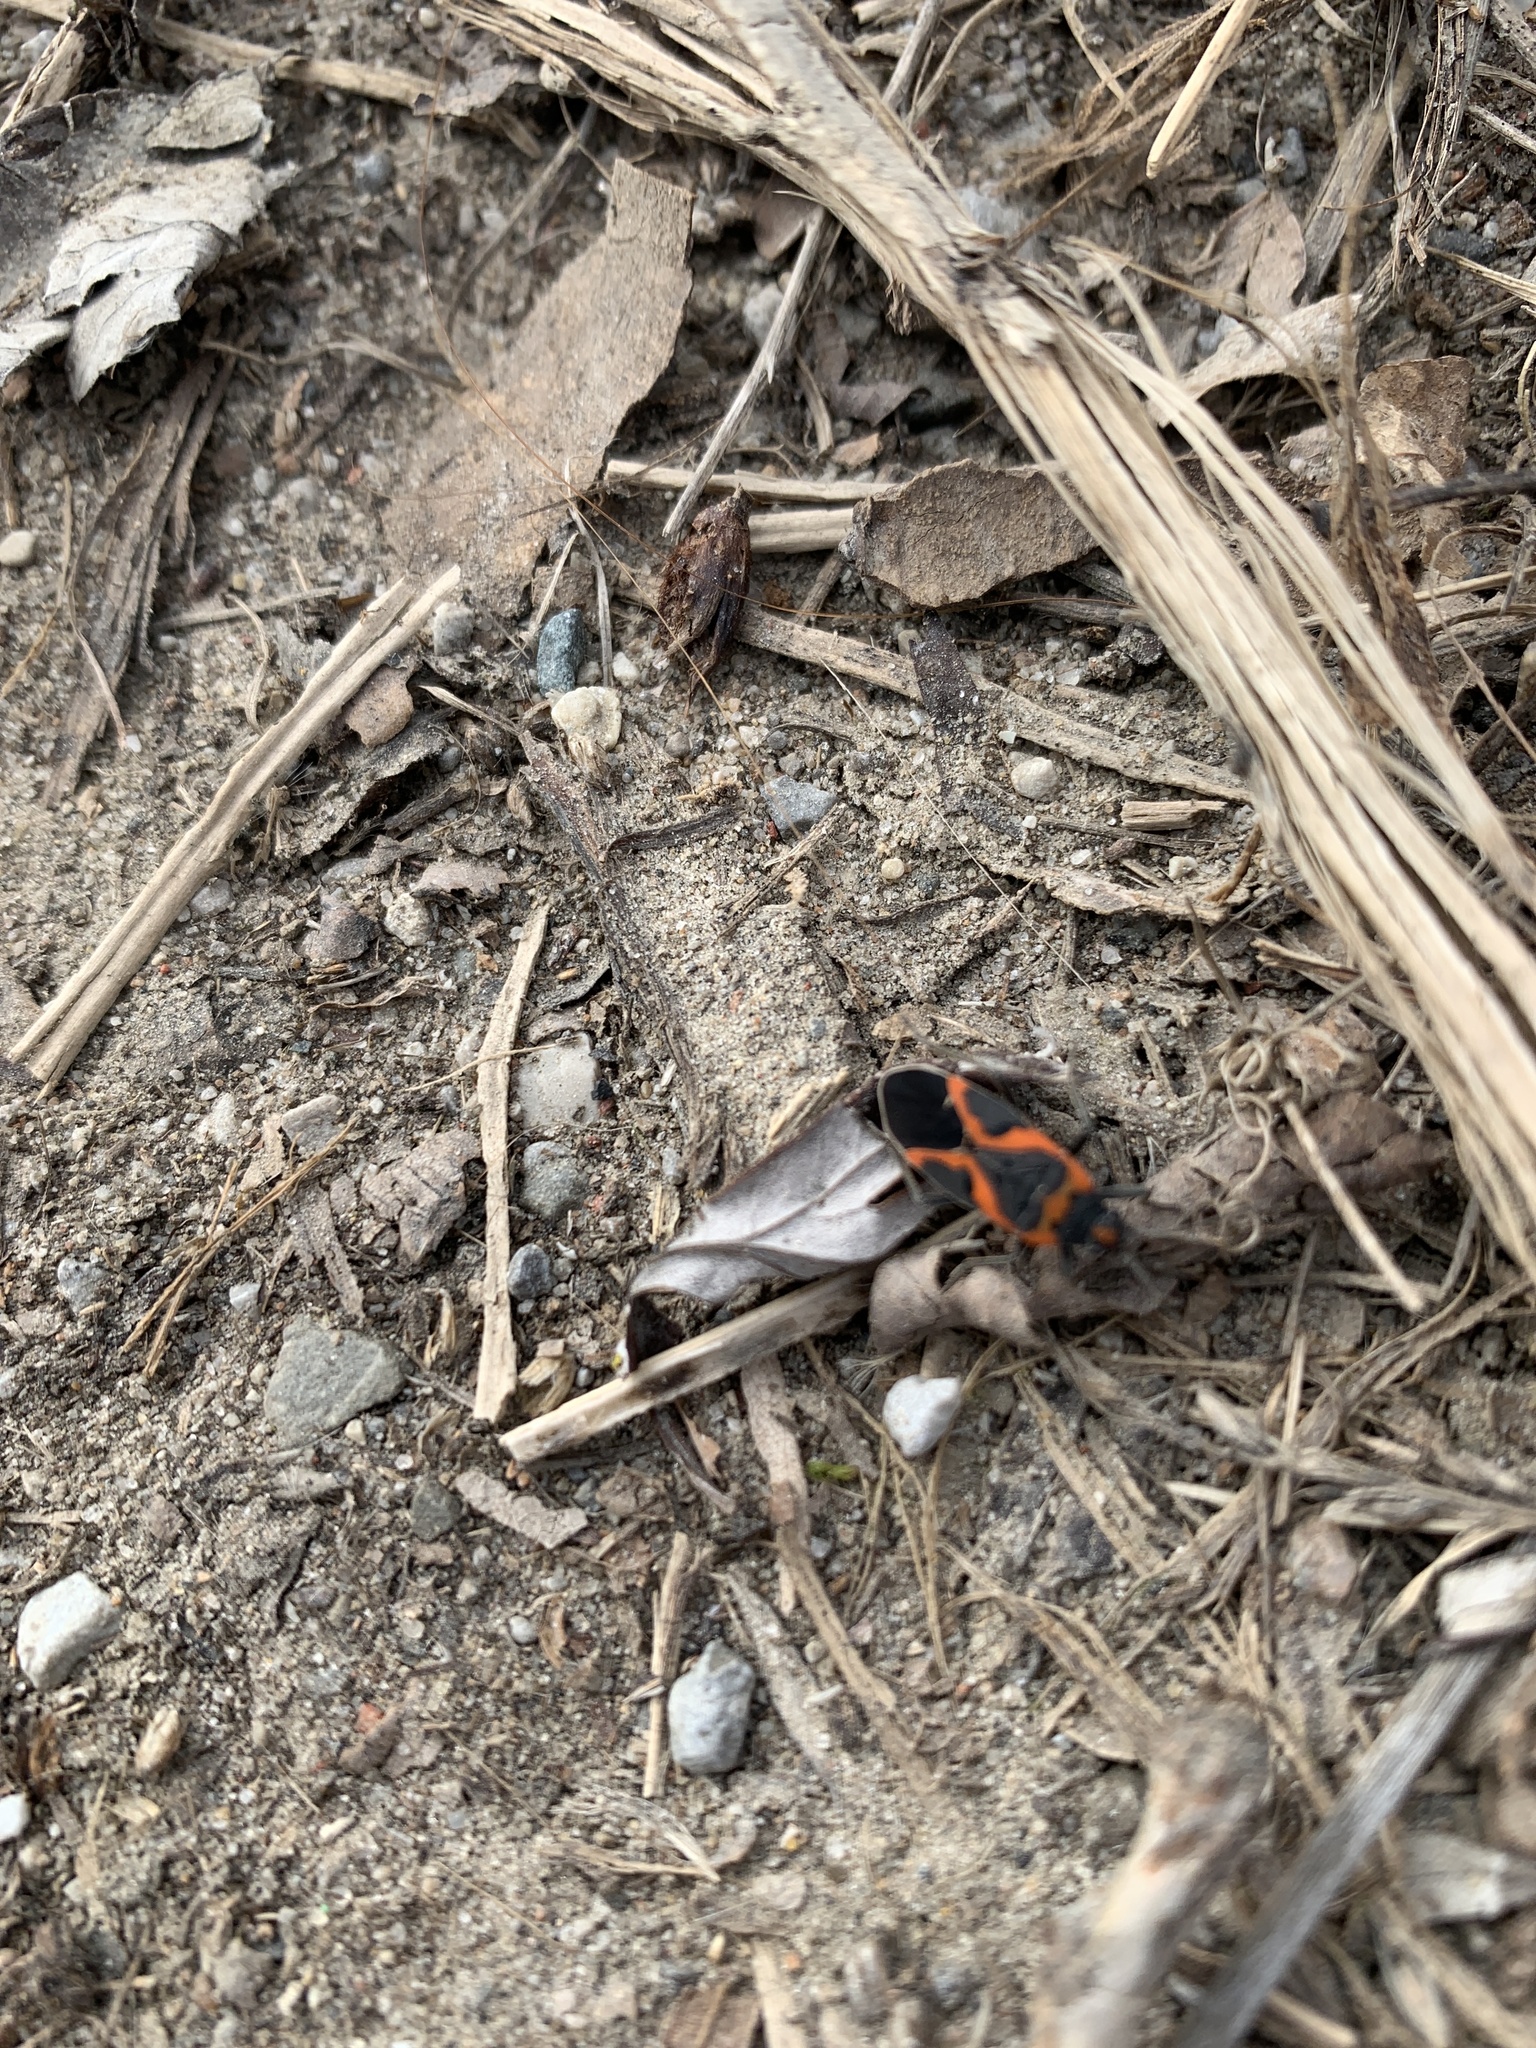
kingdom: Animalia
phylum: Arthropoda
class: Insecta
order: Hemiptera
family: Lygaeidae
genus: Lygaeus
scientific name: Lygaeus kalmii
